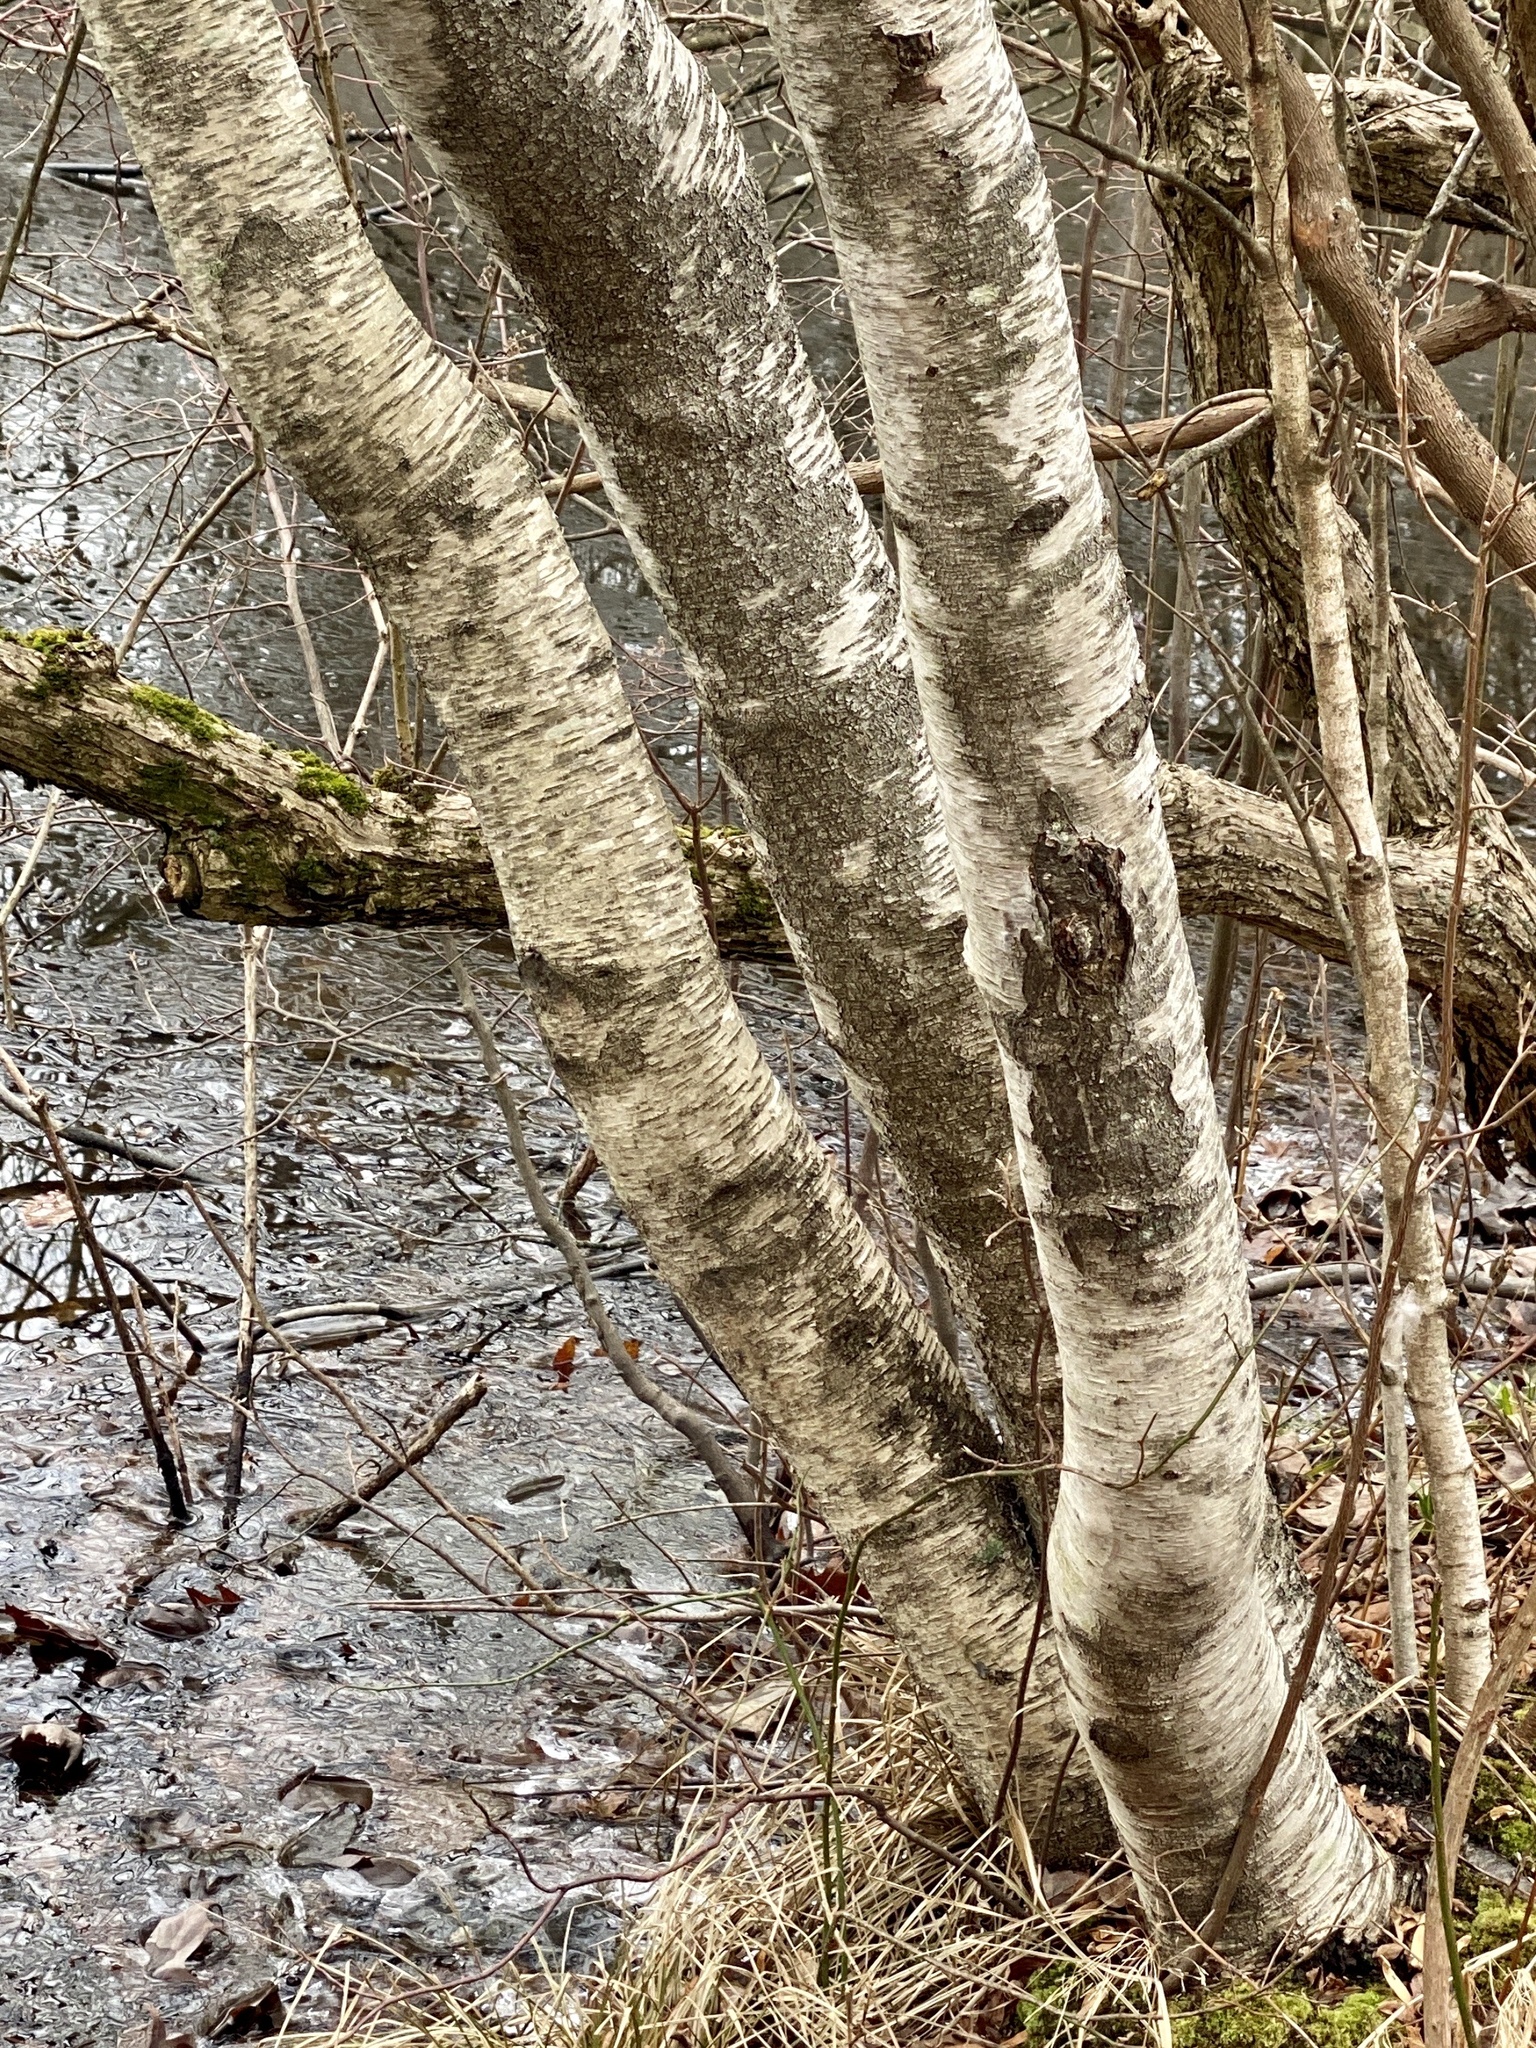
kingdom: Plantae
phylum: Tracheophyta
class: Magnoliopsida
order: Fagales
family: Betulaceae
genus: Betula
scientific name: Betula populifolia
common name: Fire birch
